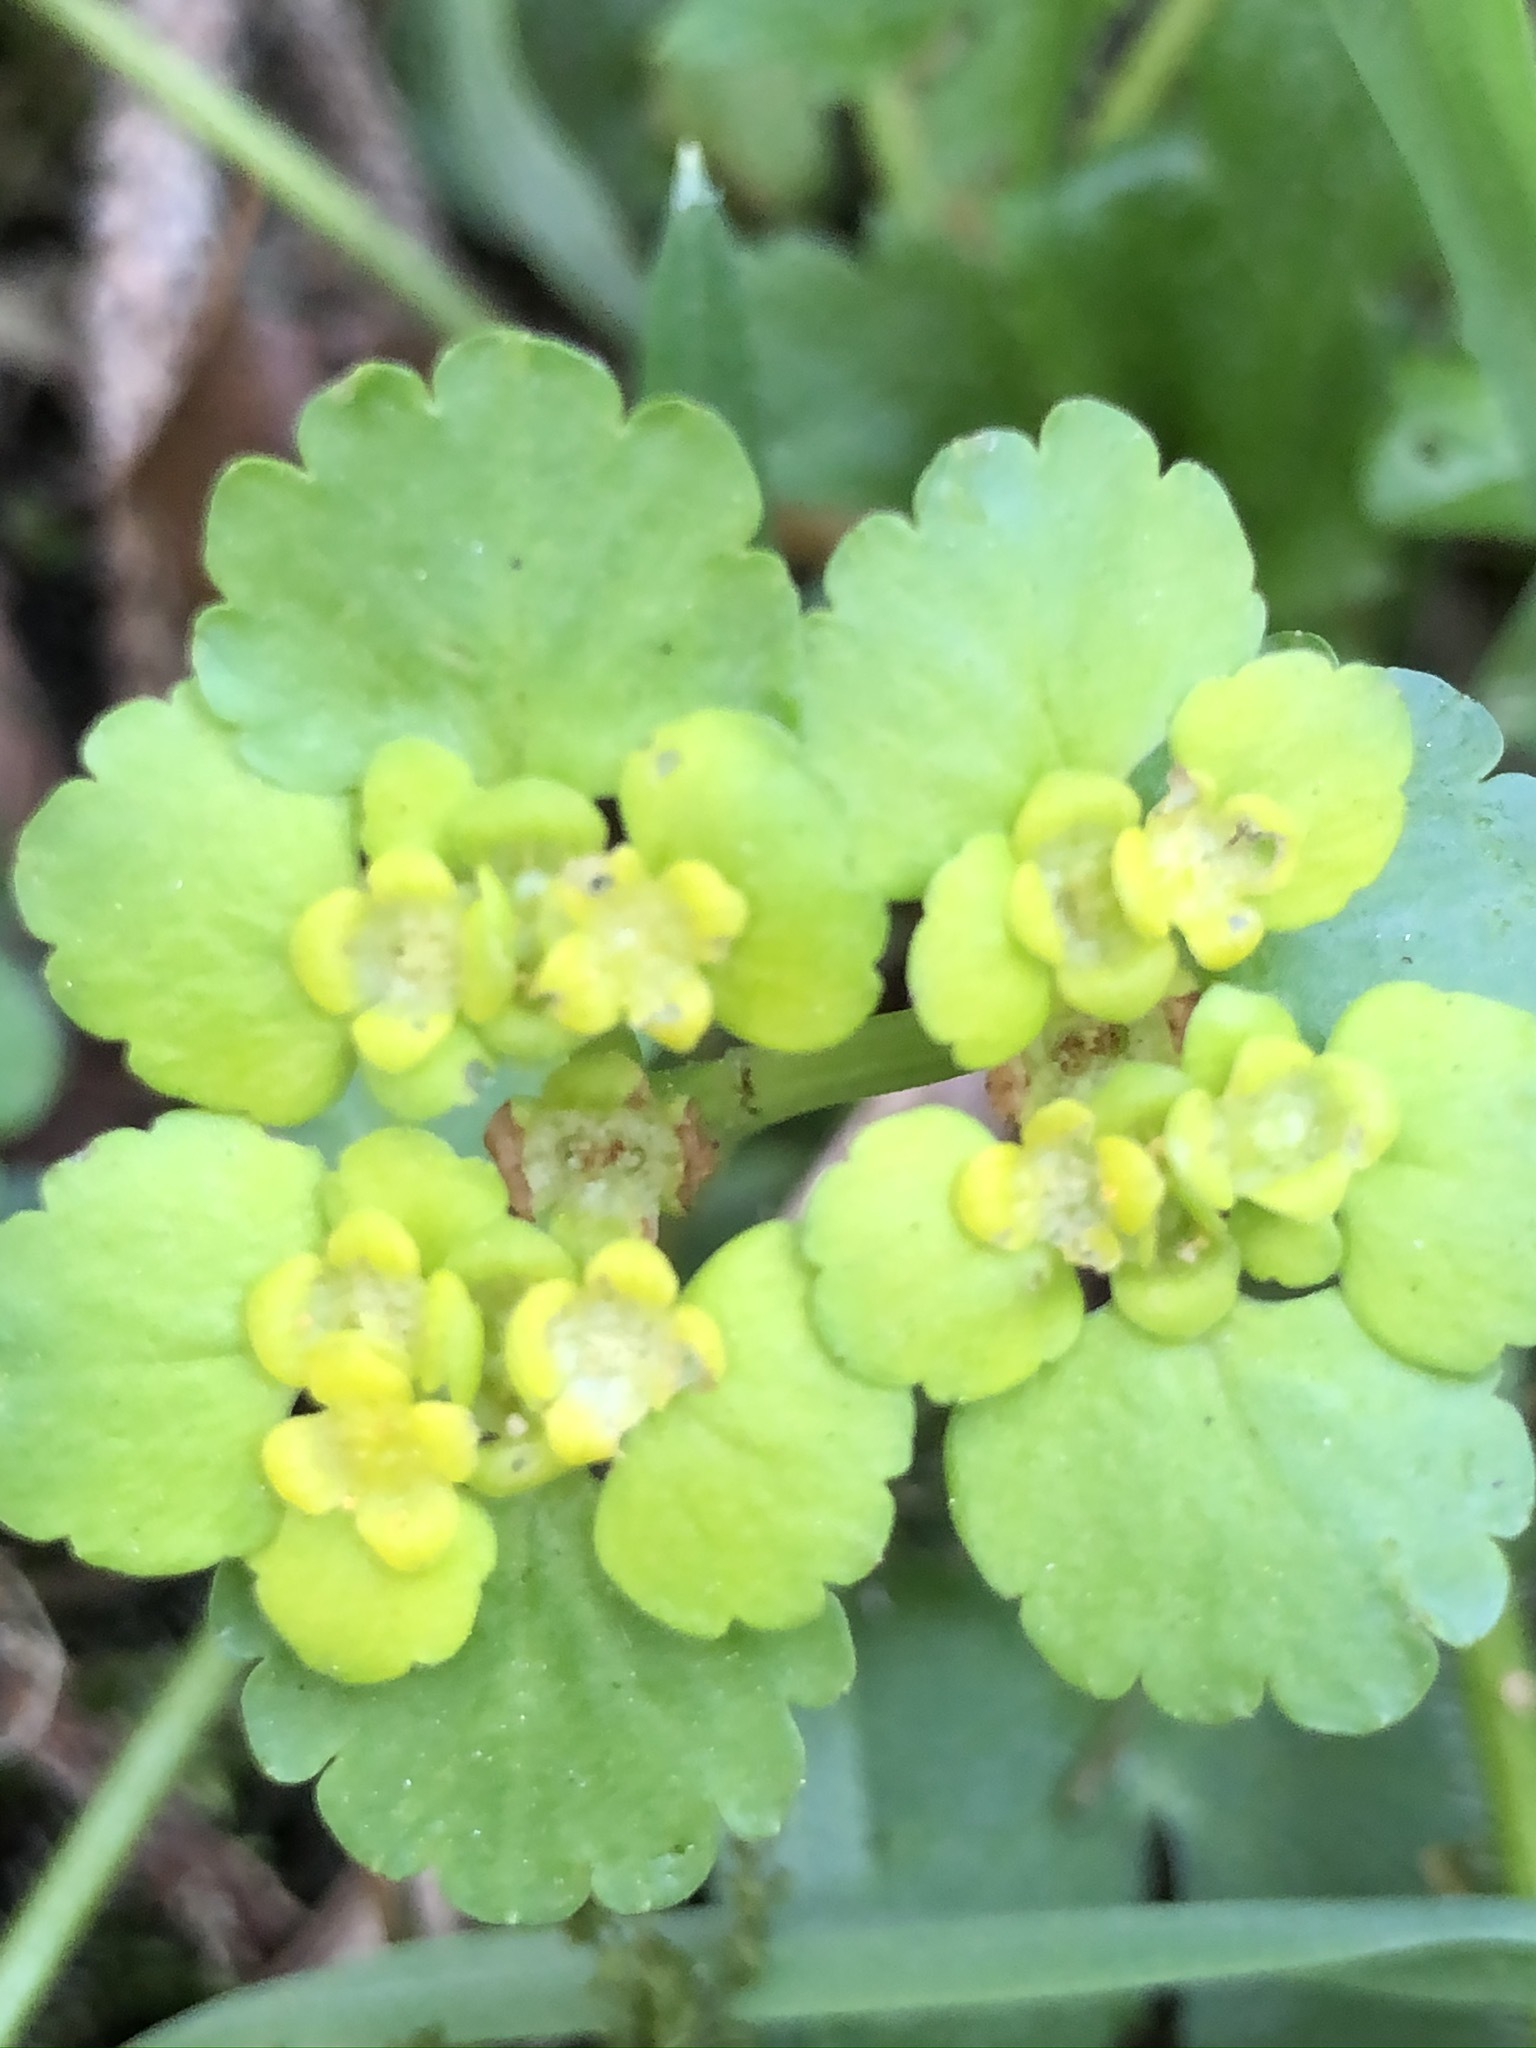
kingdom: Plantae
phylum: Tracheophyta
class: Magnoliopsida
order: Saxifragales
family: Saxifragaceae
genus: Chrysosplenium
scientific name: Chrysosplenium alternifolium
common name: Alternate-leaved golden-saxifrage
